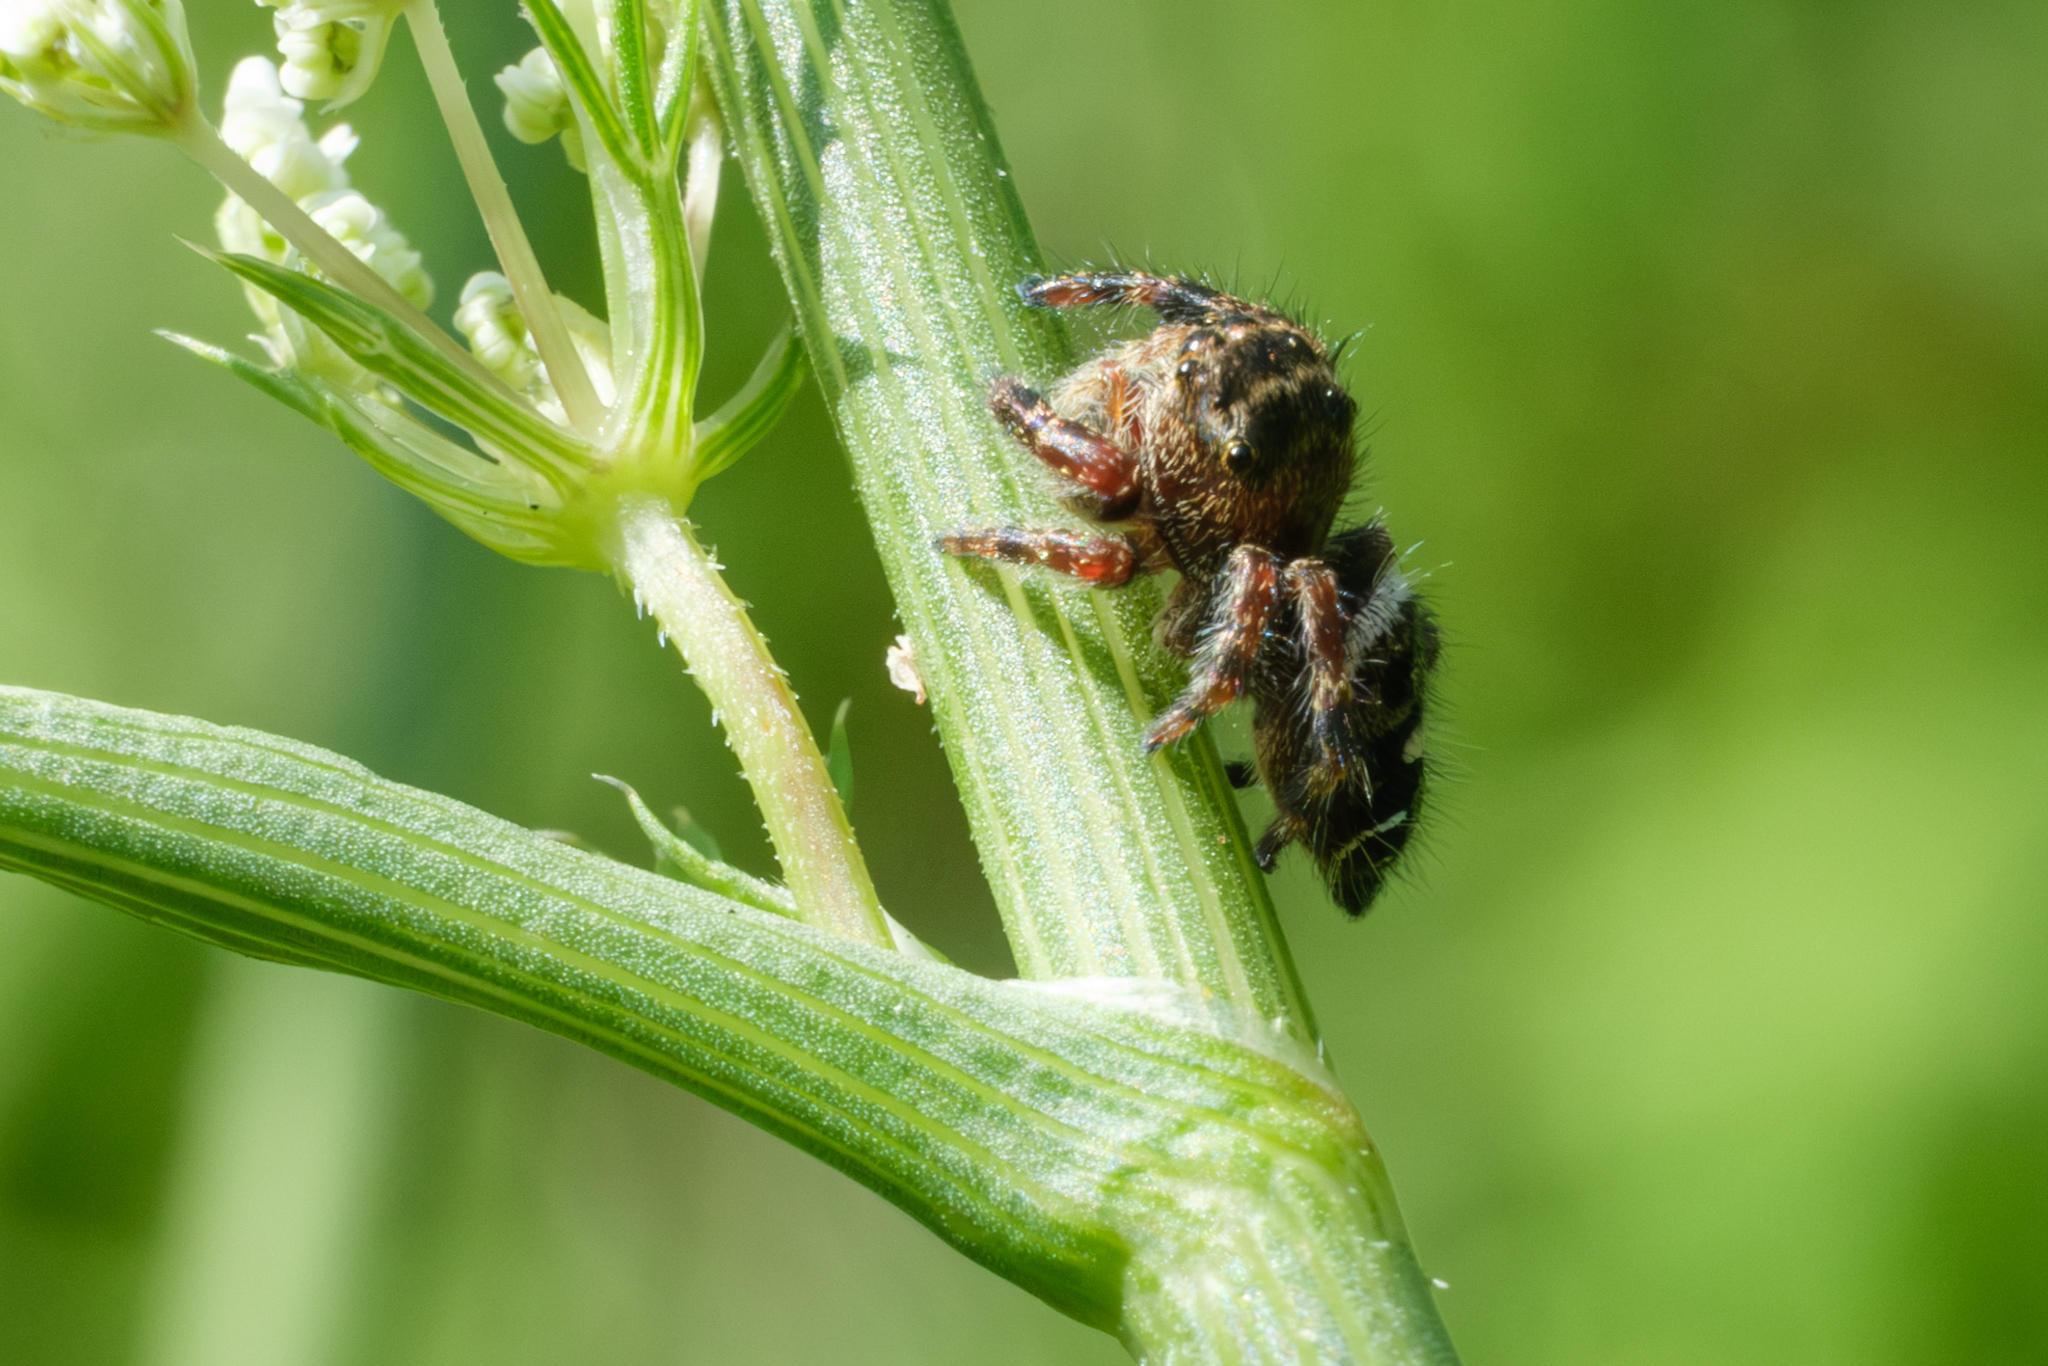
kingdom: Animalia
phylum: Arthropoda
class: Arachnida
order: Araneae
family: Salticidae
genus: Phidippus
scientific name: Phidippus audax
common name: Bold jumper
